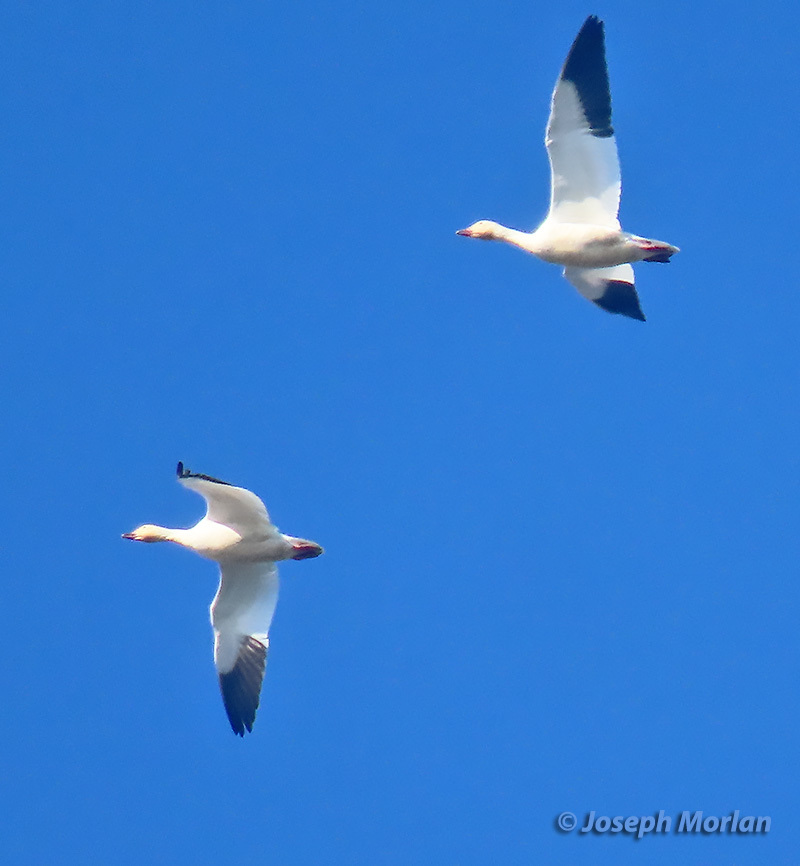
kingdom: Animalia
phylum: Chordata
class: Aves
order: Anseriformes
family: Anatidae
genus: Anser
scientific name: Anser caerulescens
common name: Snow goose
